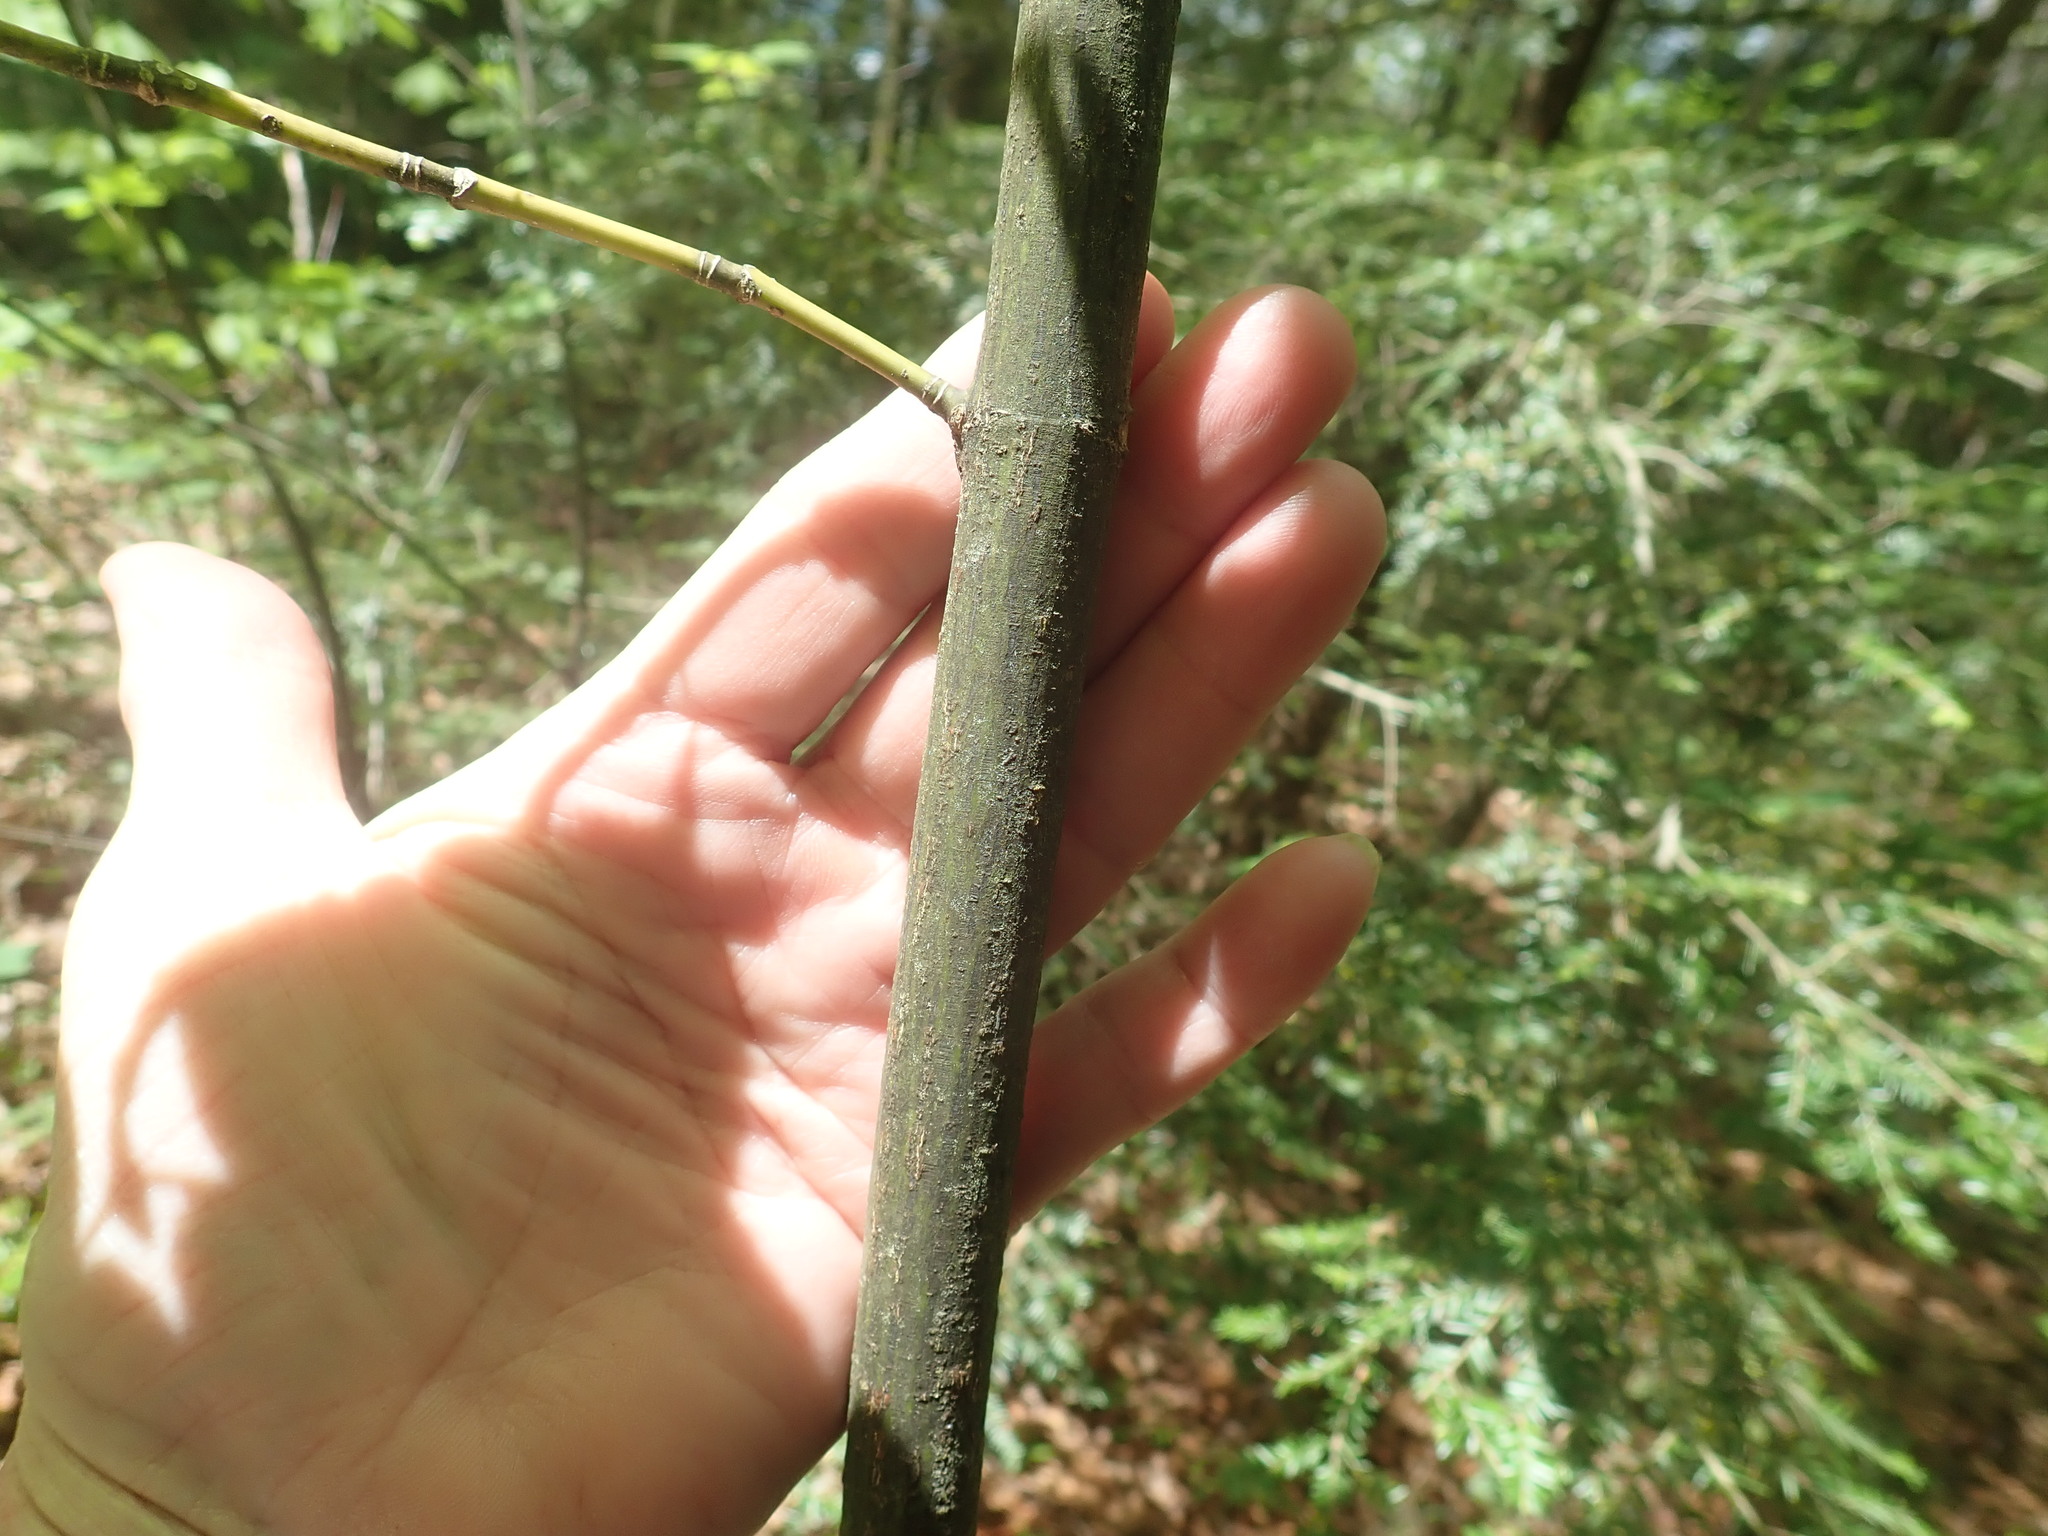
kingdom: Plantae
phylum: Tracheophyta
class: Magnoliopsida
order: Sapindales
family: Sapindaceae
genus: Acer
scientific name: Acer pensylvanicum
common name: Moosewood
